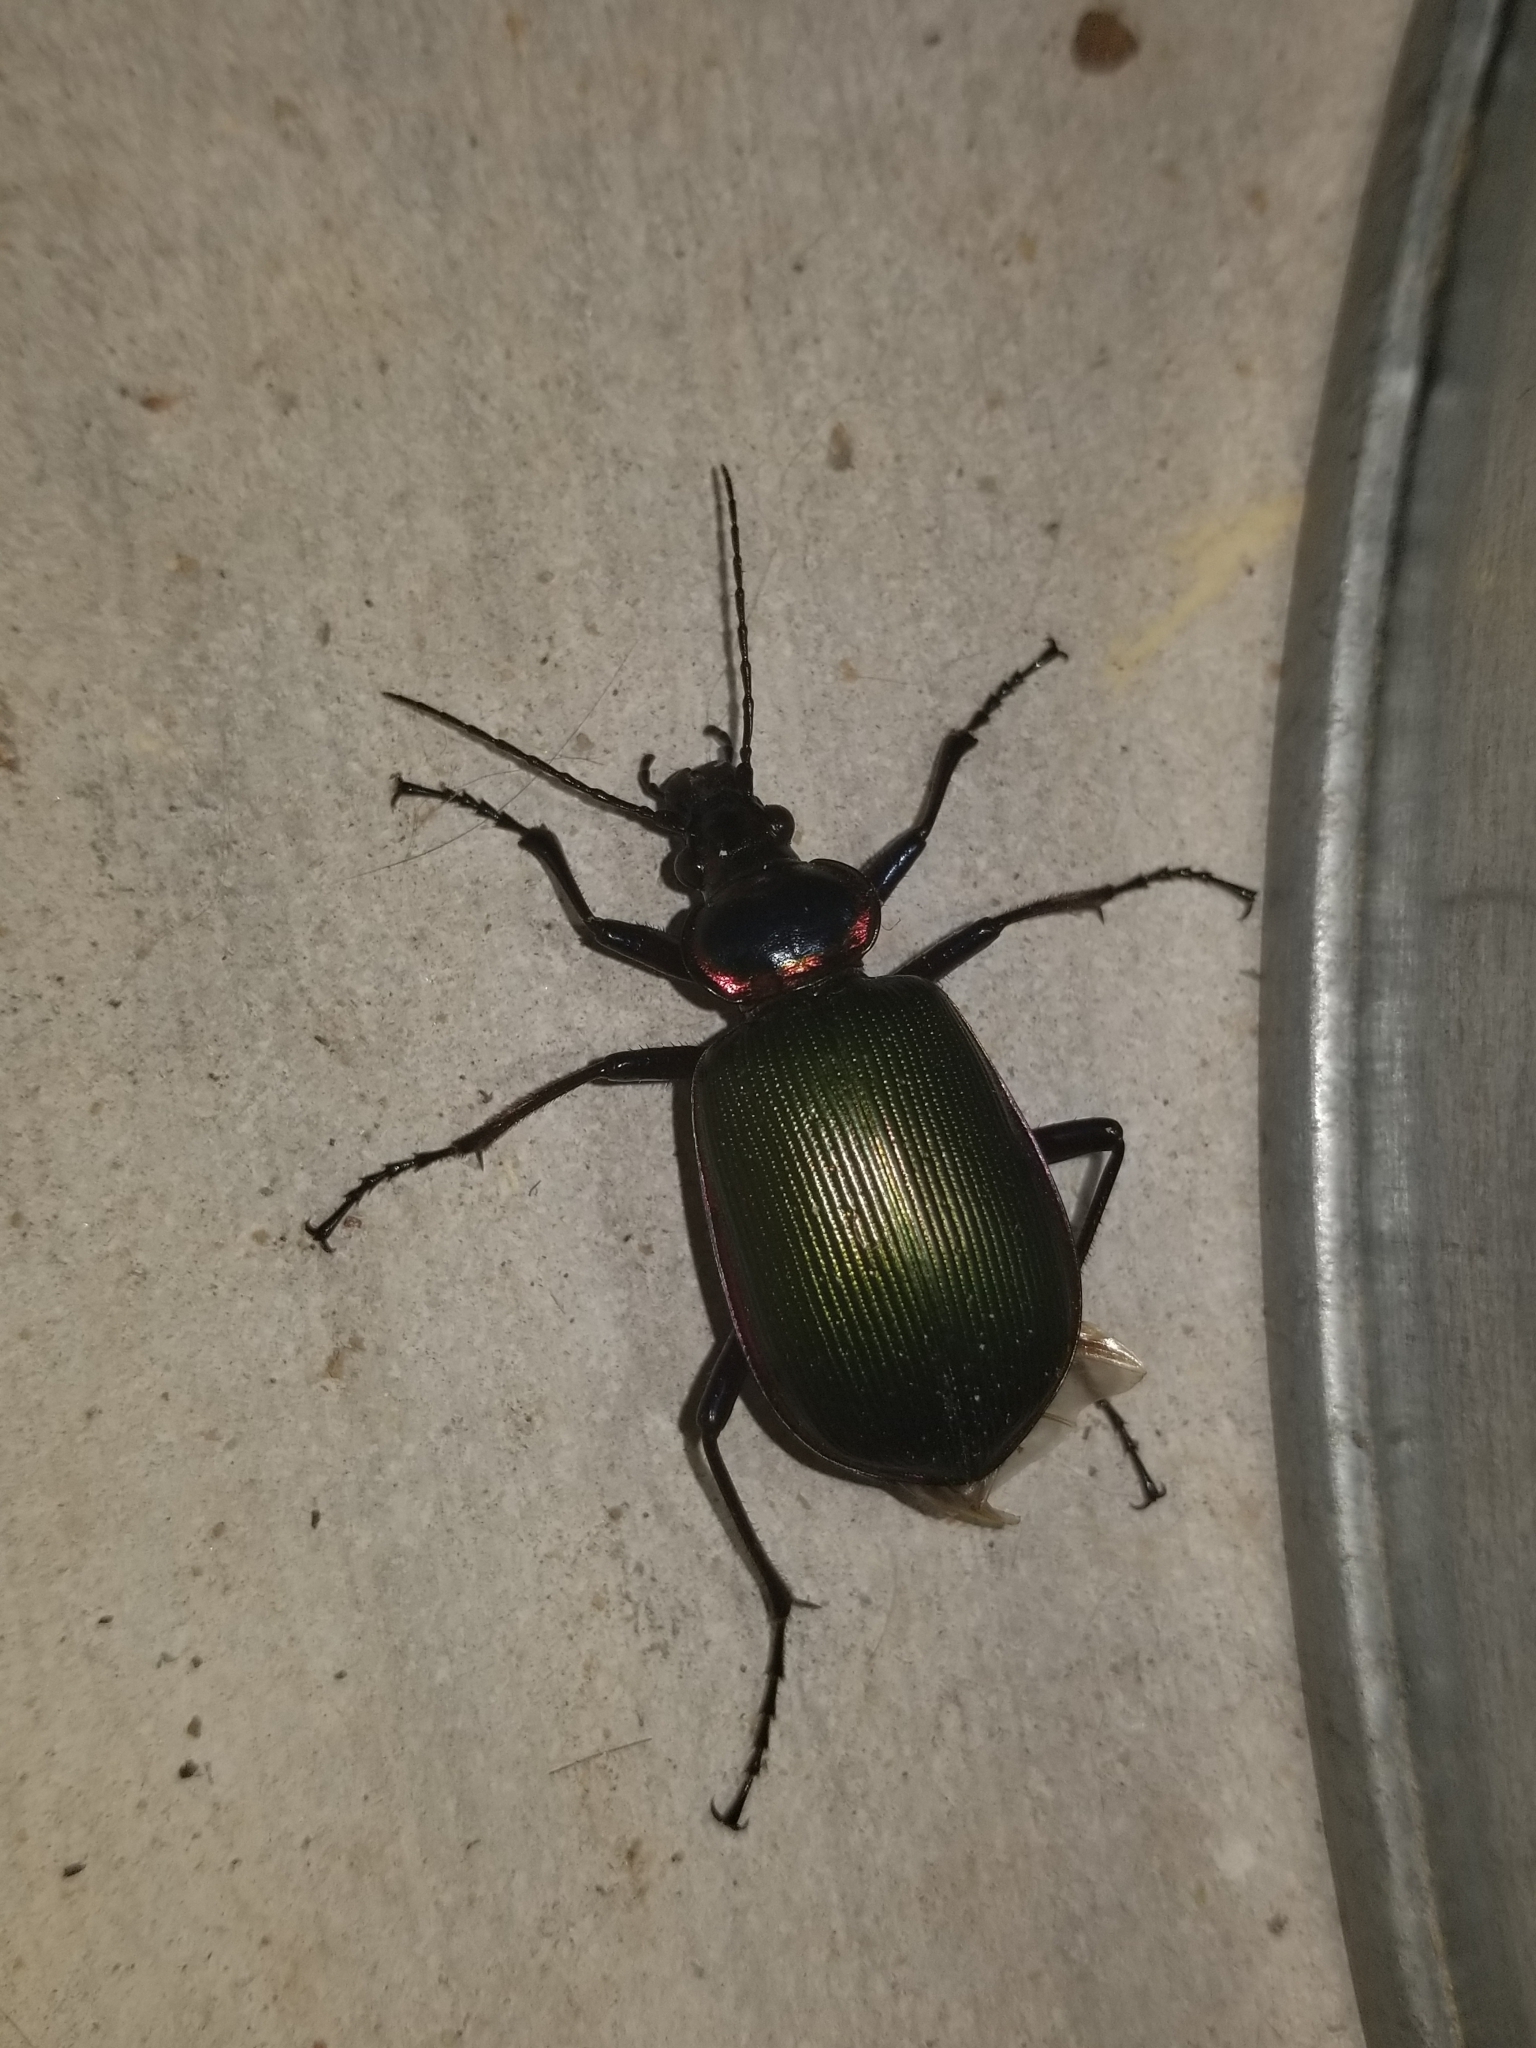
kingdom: Animalia
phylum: Arthropoda
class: Insecta
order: Coleoptera
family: Carabidae
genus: Calosoma
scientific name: Calosoma scrutator
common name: Fiery searcher beetle
